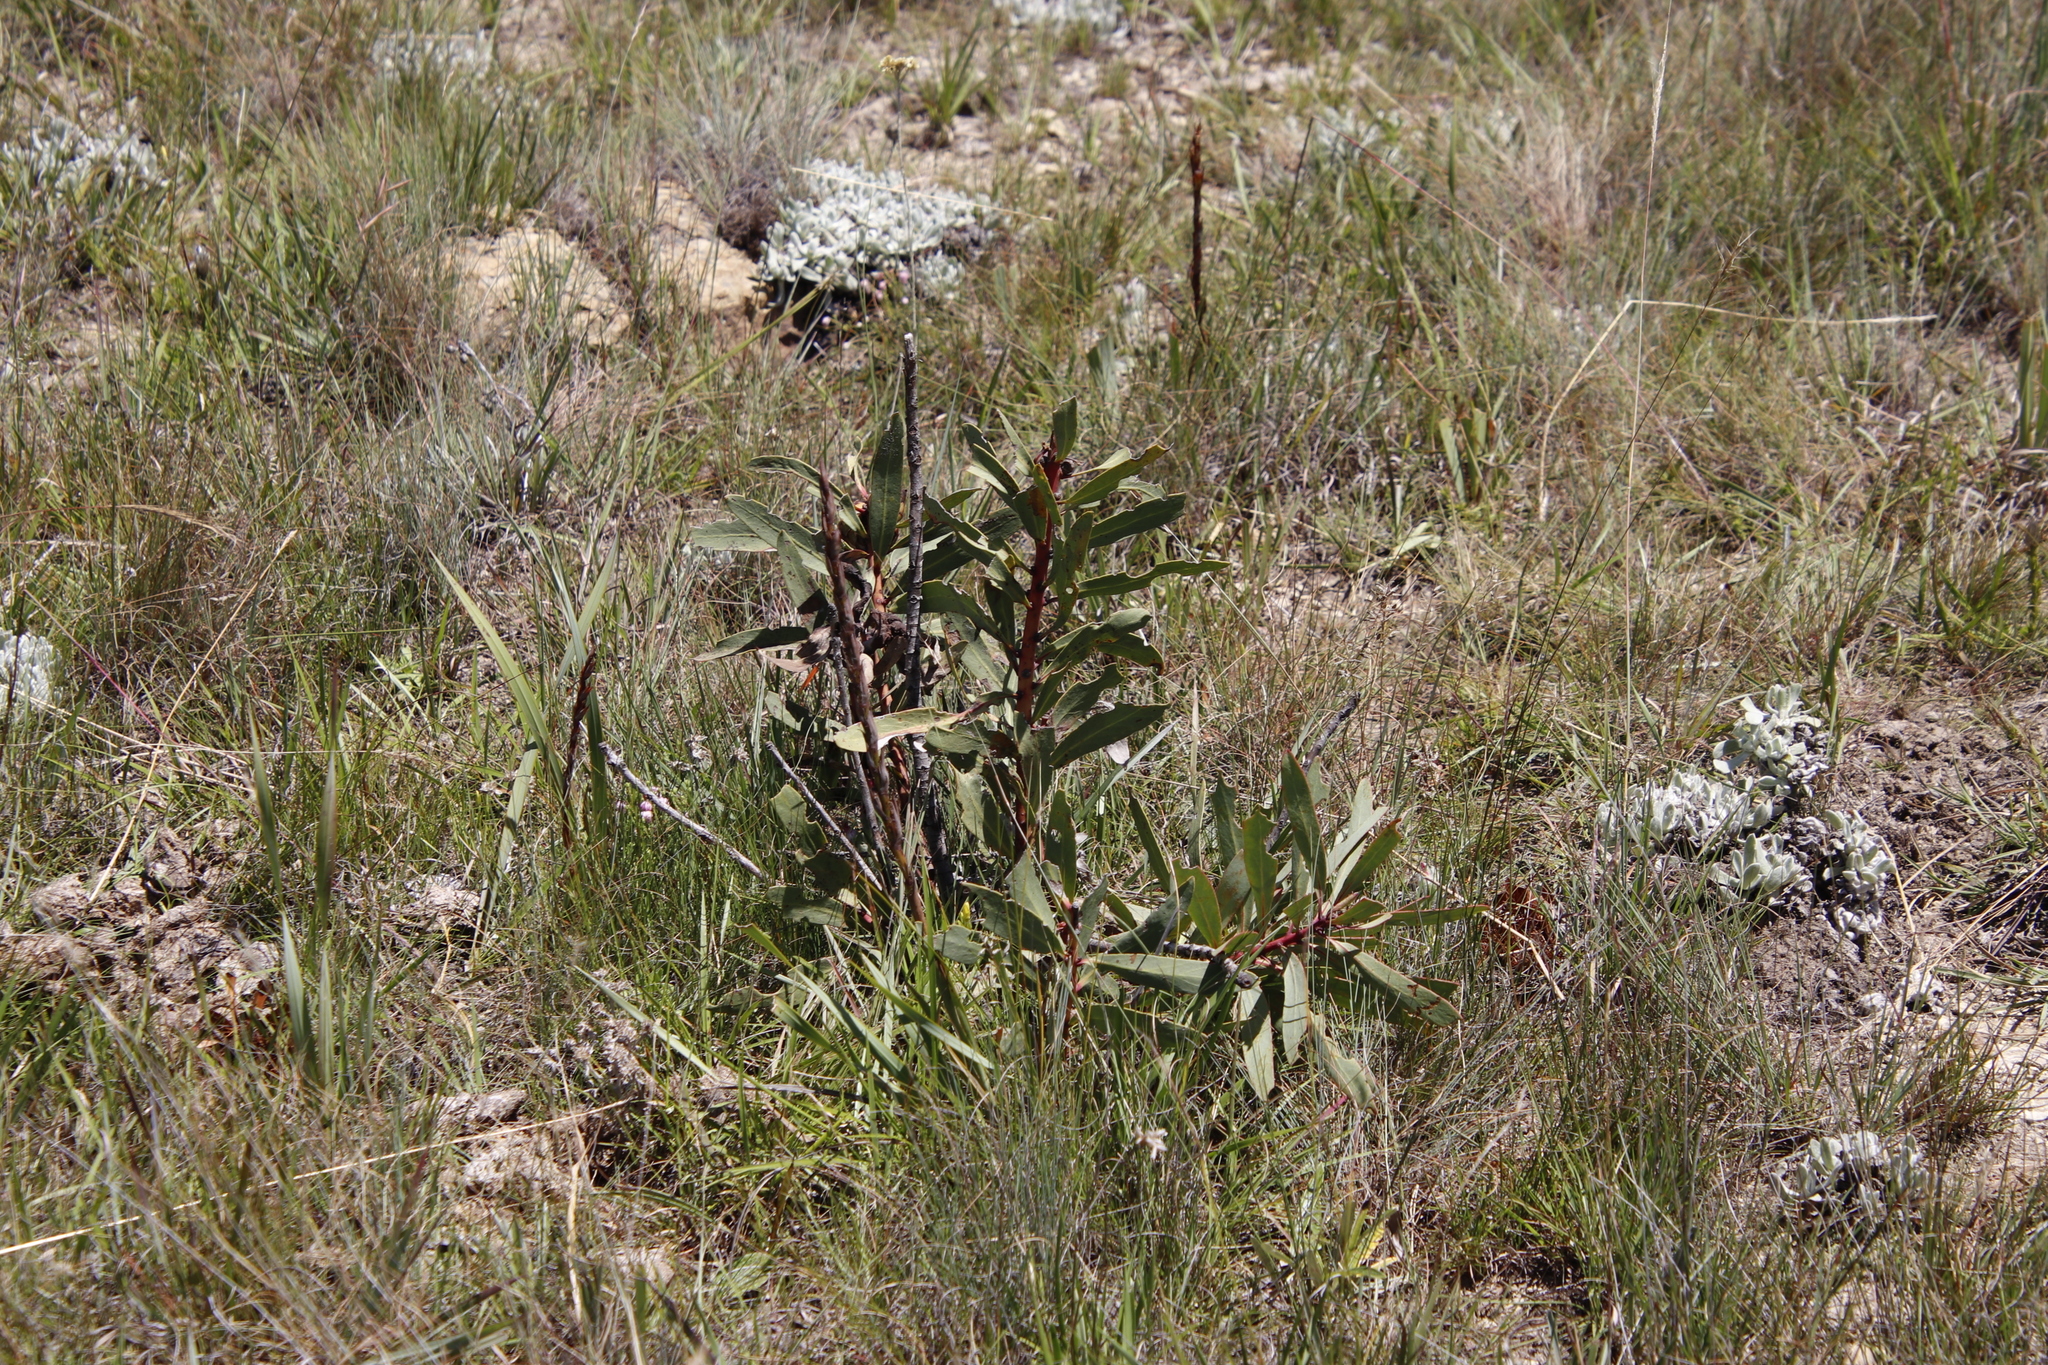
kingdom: Plantae
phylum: Tracheophyta
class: Magnoliopsida
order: Proteales
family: Proteaceae
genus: Protea
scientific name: Protea caffra
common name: Common sugarbush
